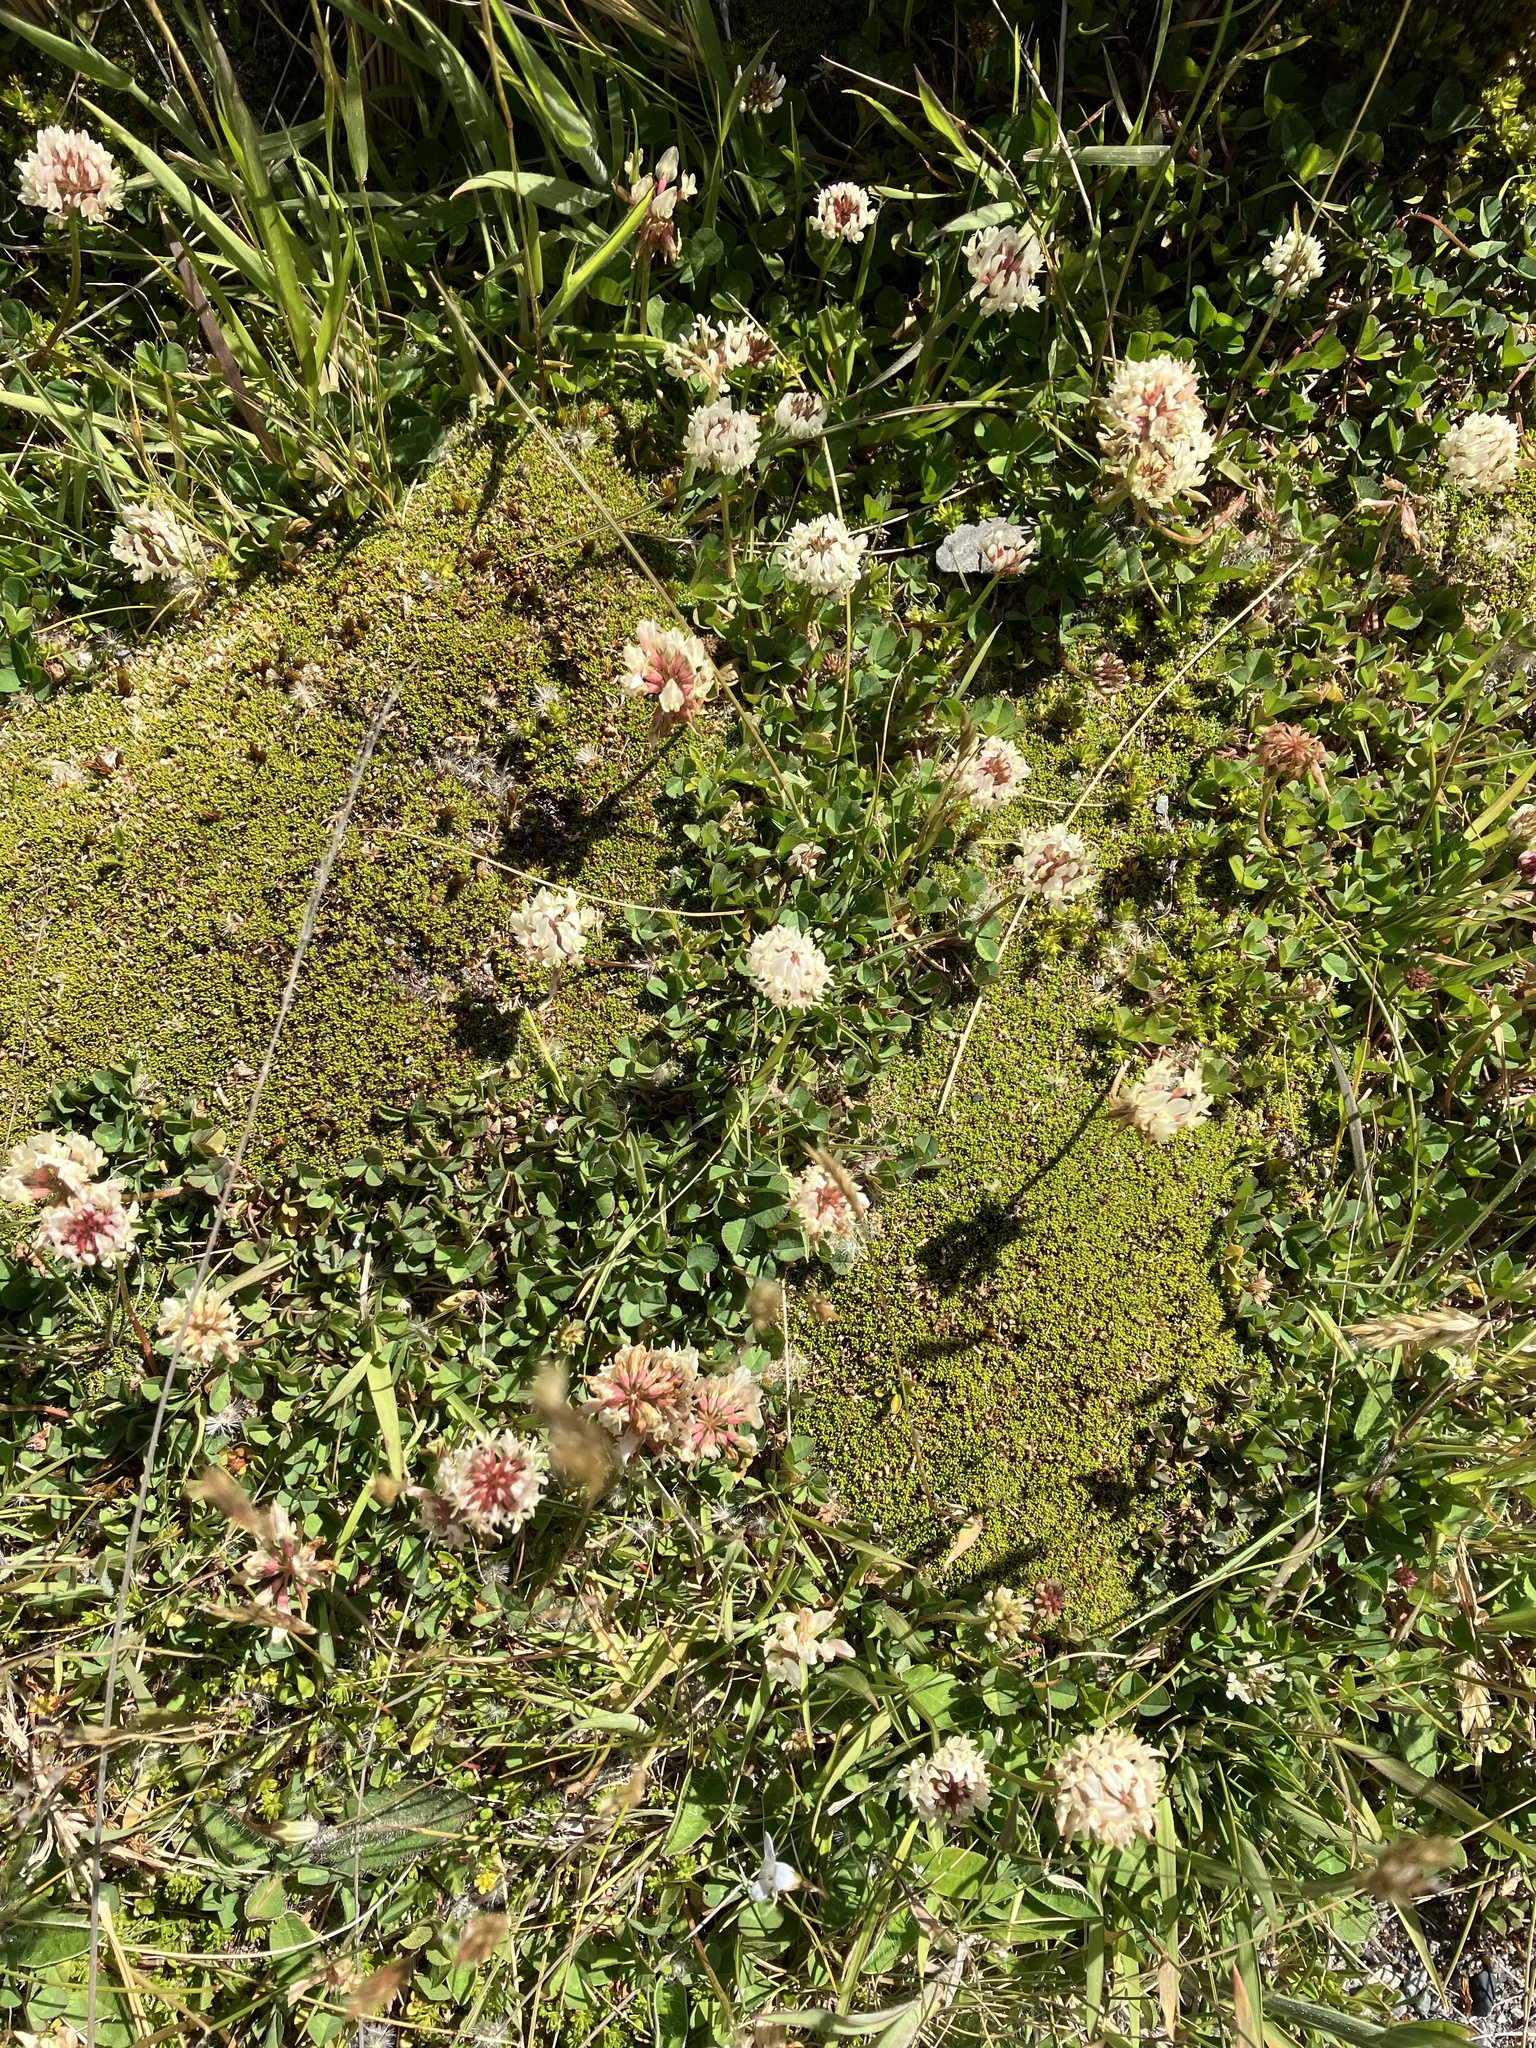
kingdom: Plantae
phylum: Tracheophyta
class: Magnoliopsida
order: Fabales
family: Fabaceae
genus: Trifolium
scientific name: Trifolium repens
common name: White clover
